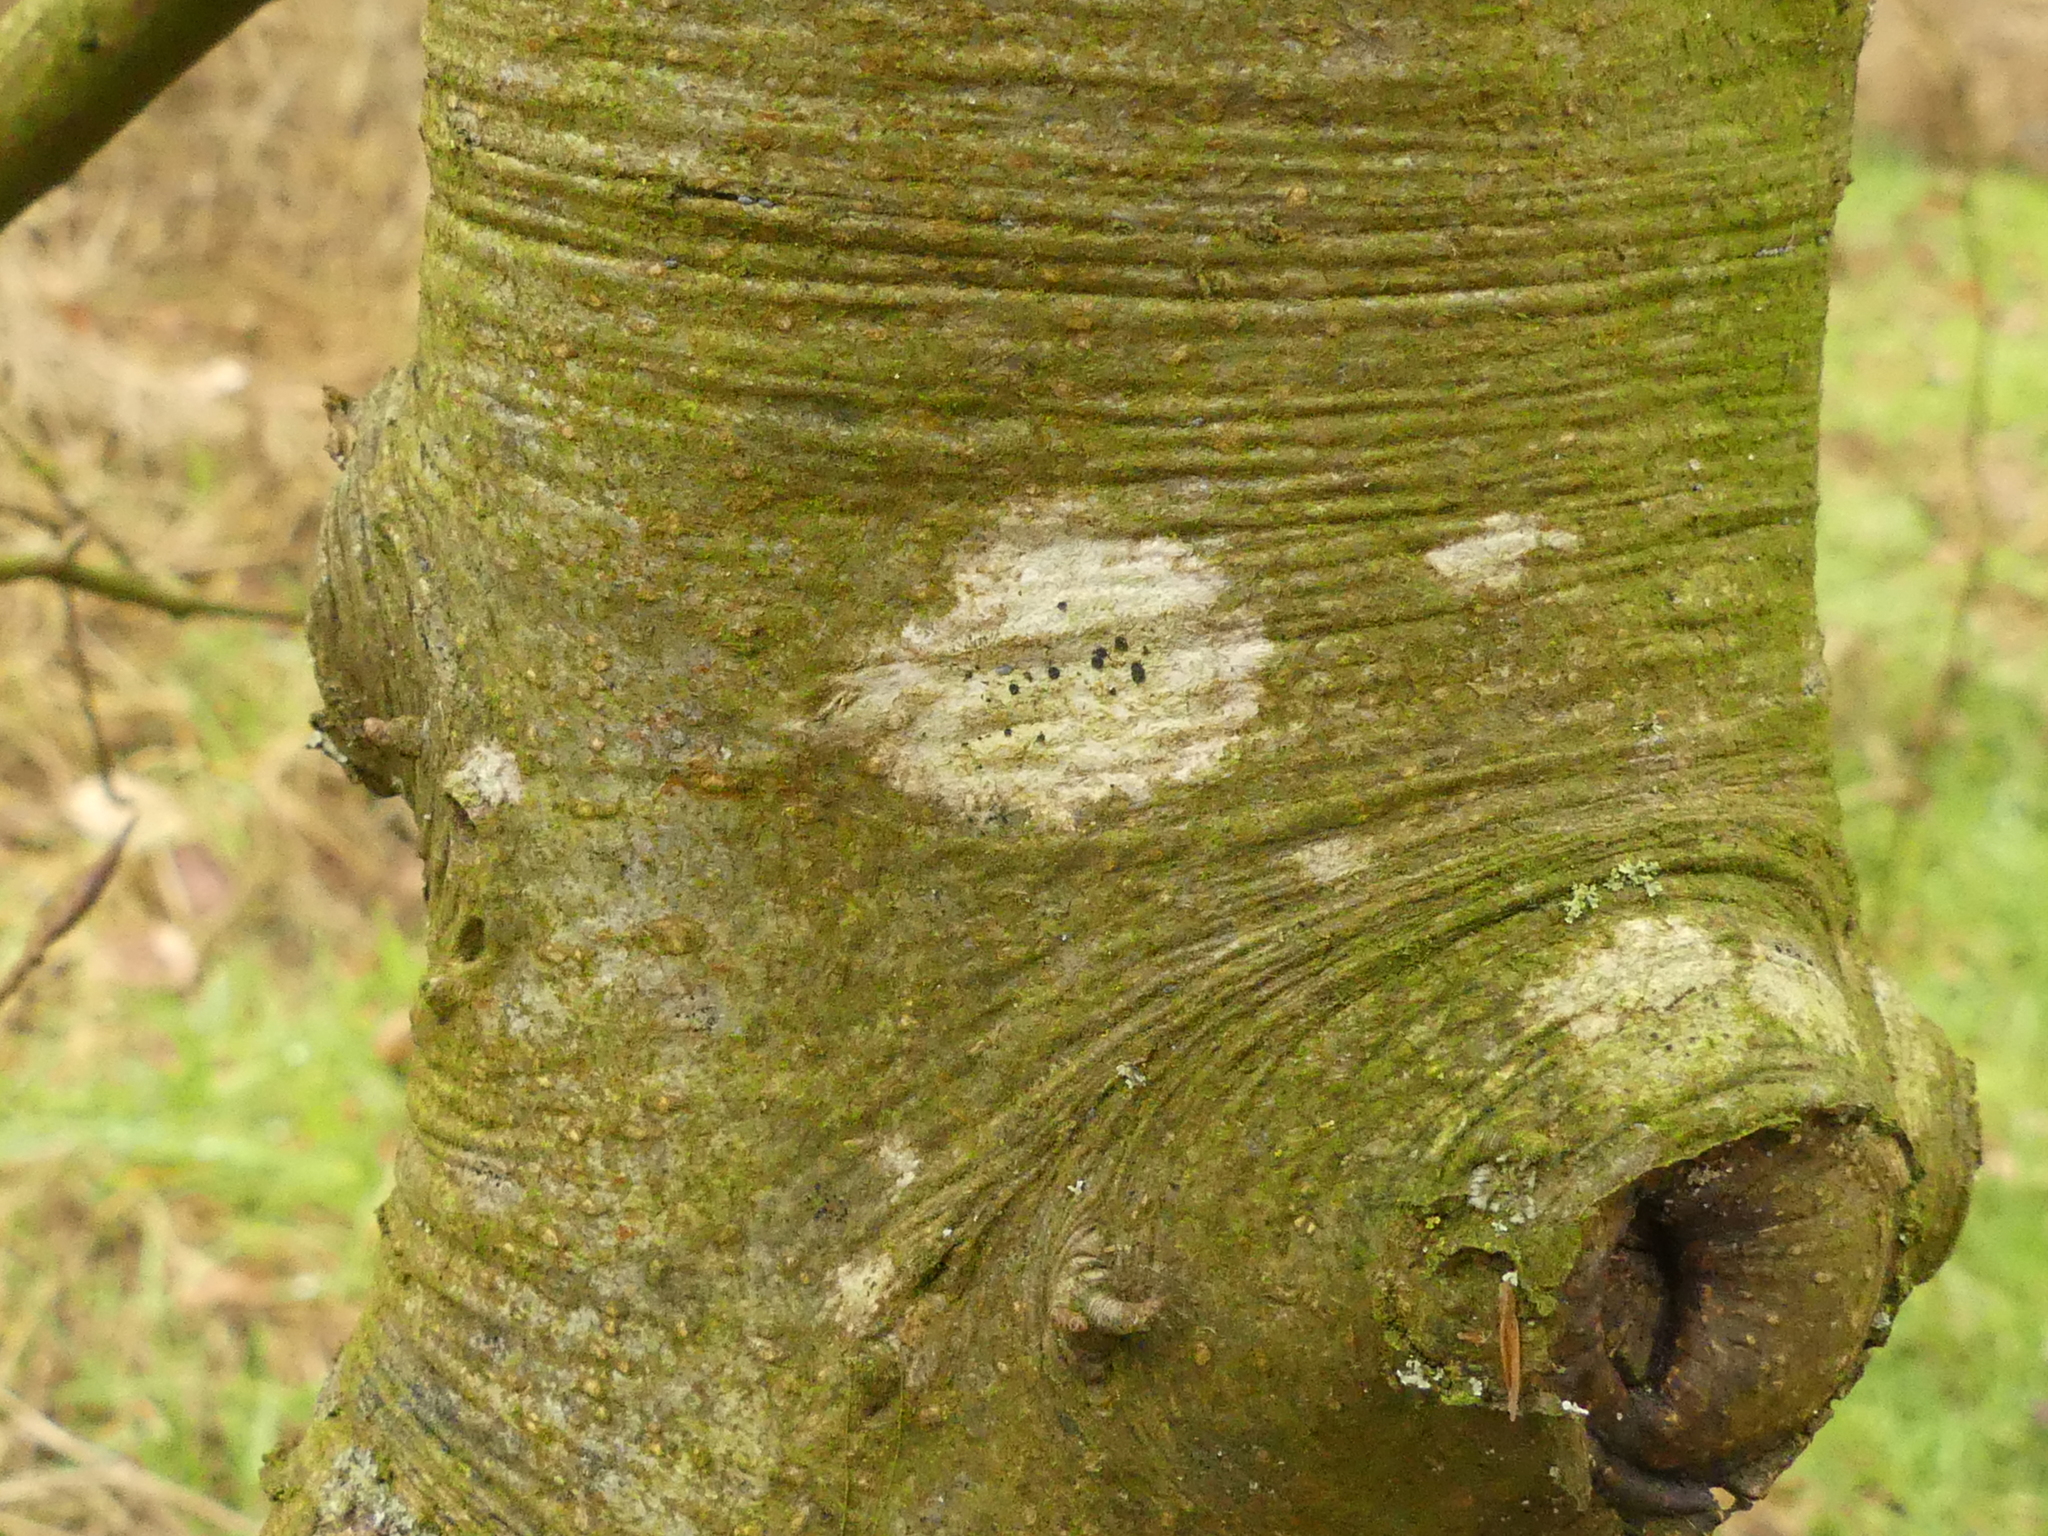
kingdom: Fungi
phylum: Ascomycota
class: Lecanoromycetes
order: Lecanorales
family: Lecanoraceae
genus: Lecidella
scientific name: Lecidella elaeochroma
